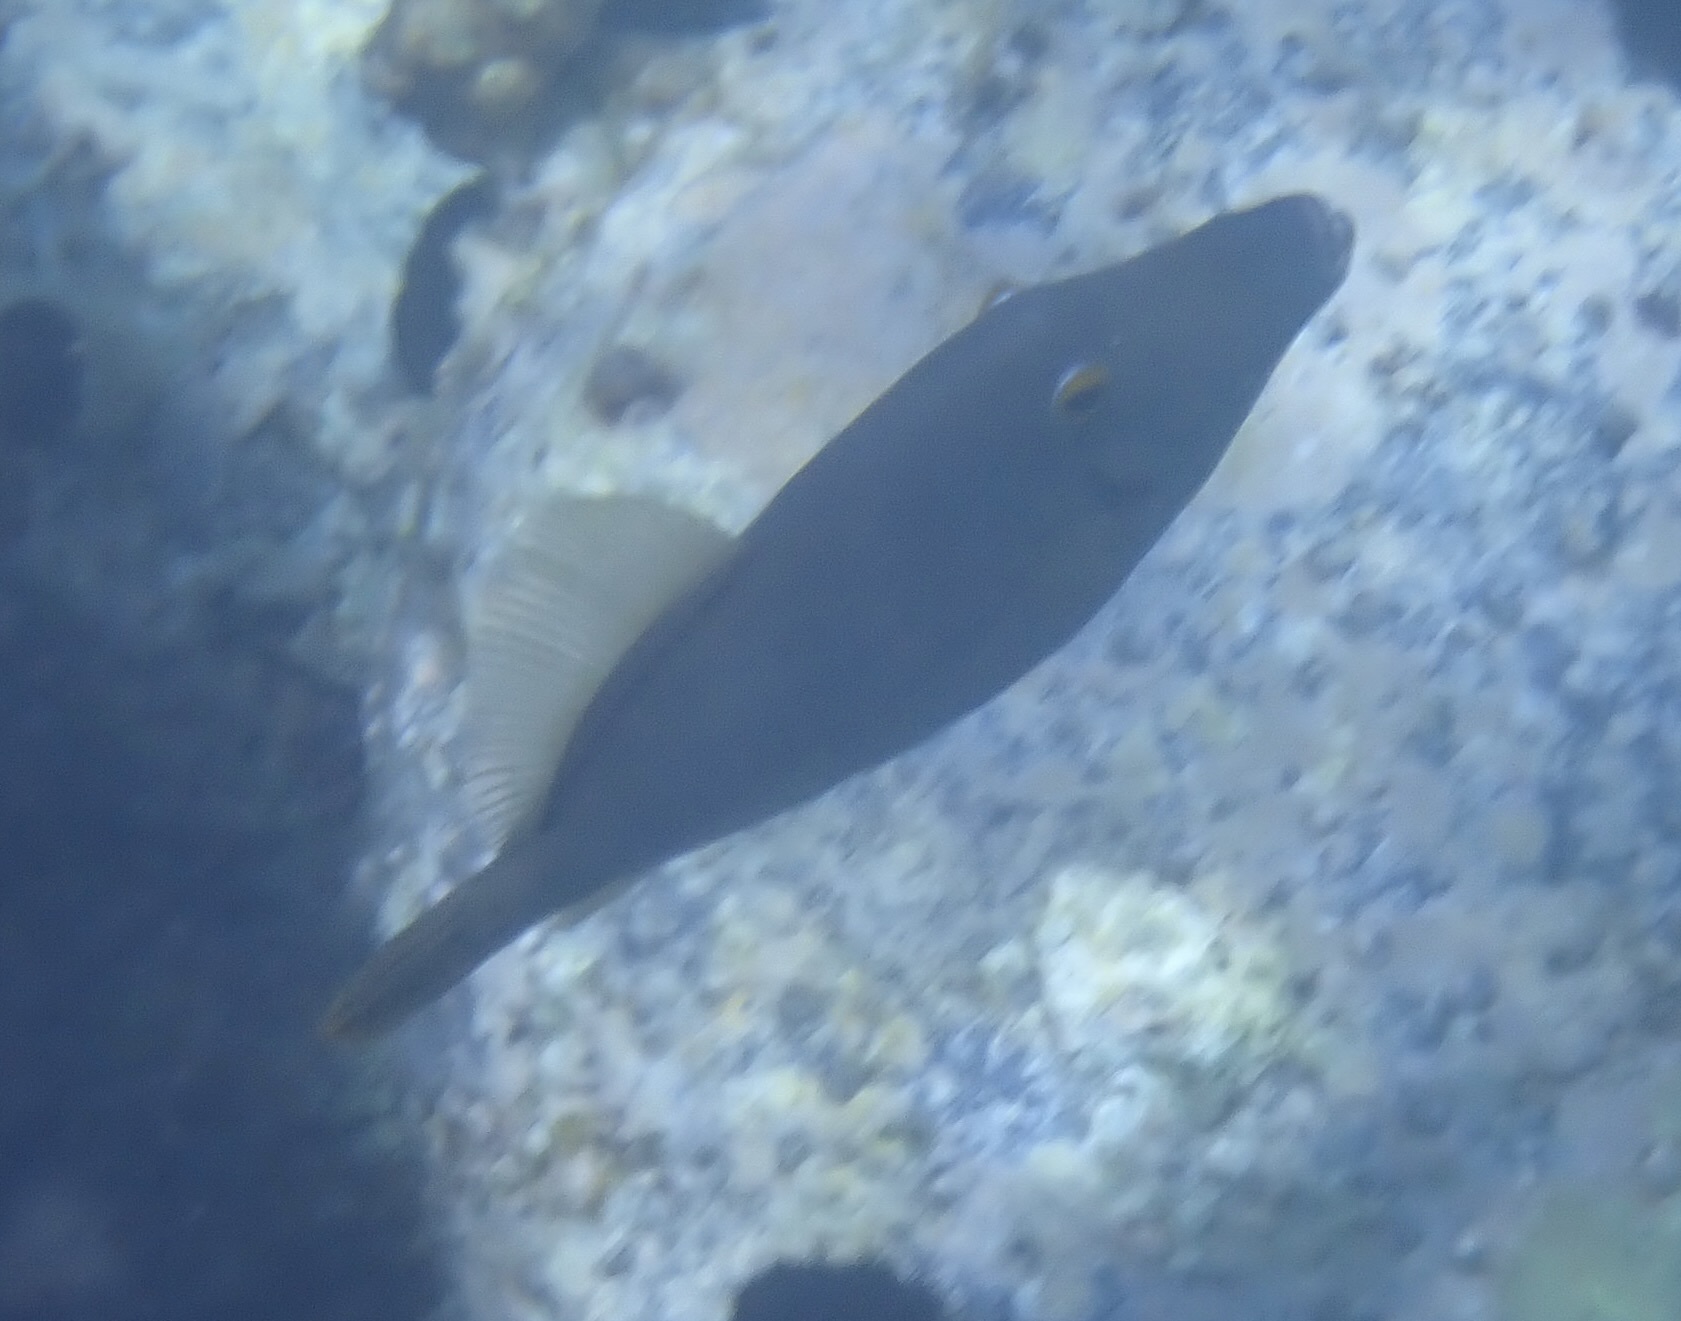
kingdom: Animalia
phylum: Chordata
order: Tetraodontiformes
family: Monacanthidae
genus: Cantherhines
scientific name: Cantherhines dumerilii
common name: Barred filefish
